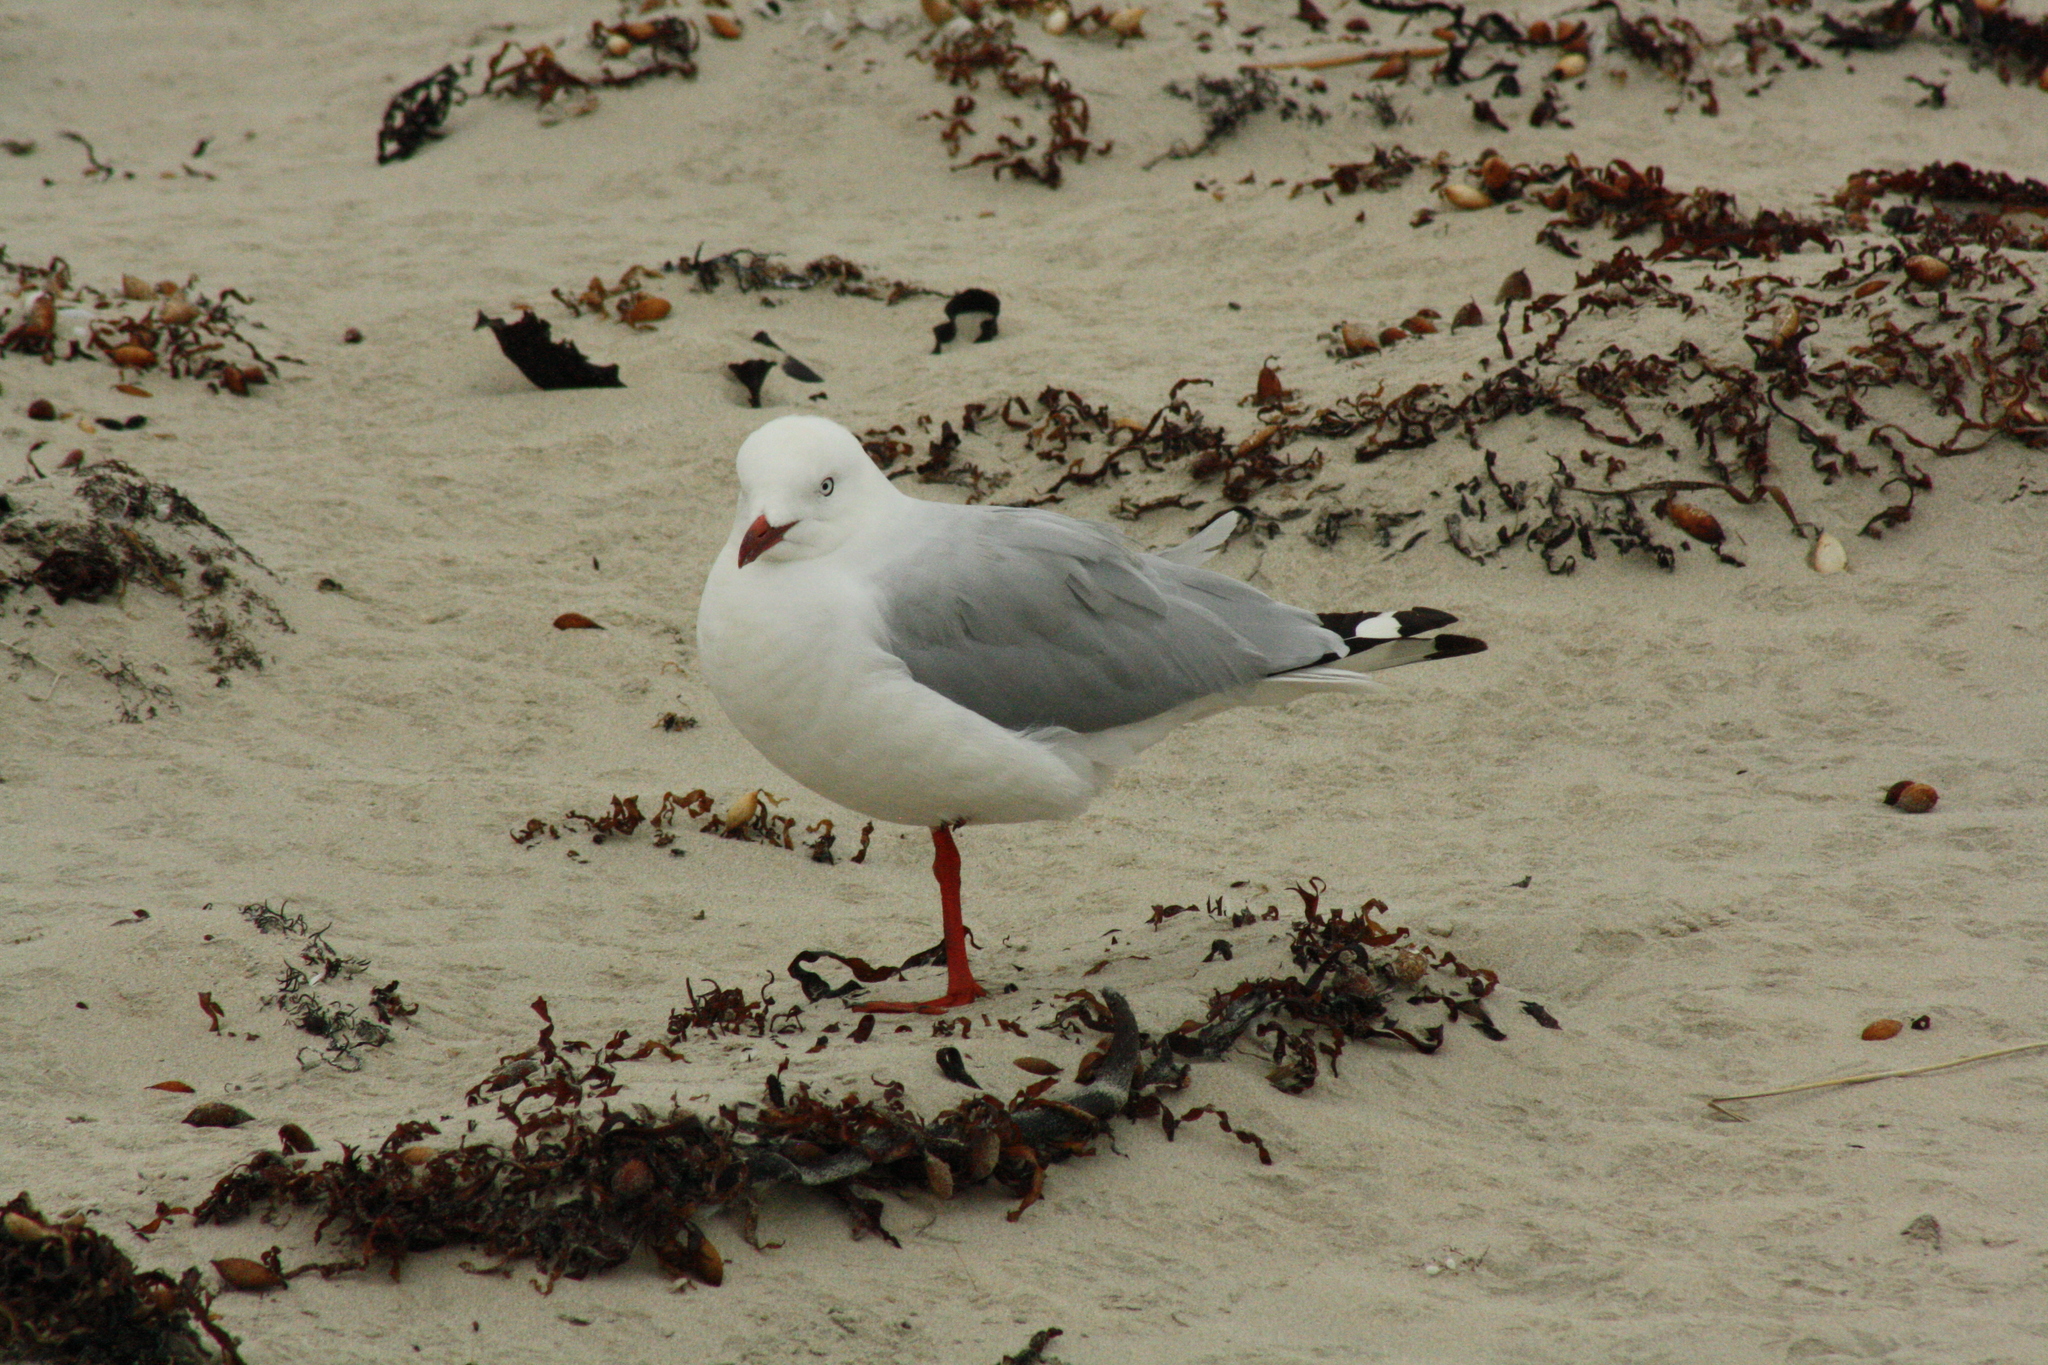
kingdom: Animalia
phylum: Chordata
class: Aves
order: Charadriiformes
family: Laridae
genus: Chroicocephalus
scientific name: Chroicocephalus novaehollandiae
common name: Silver gull
